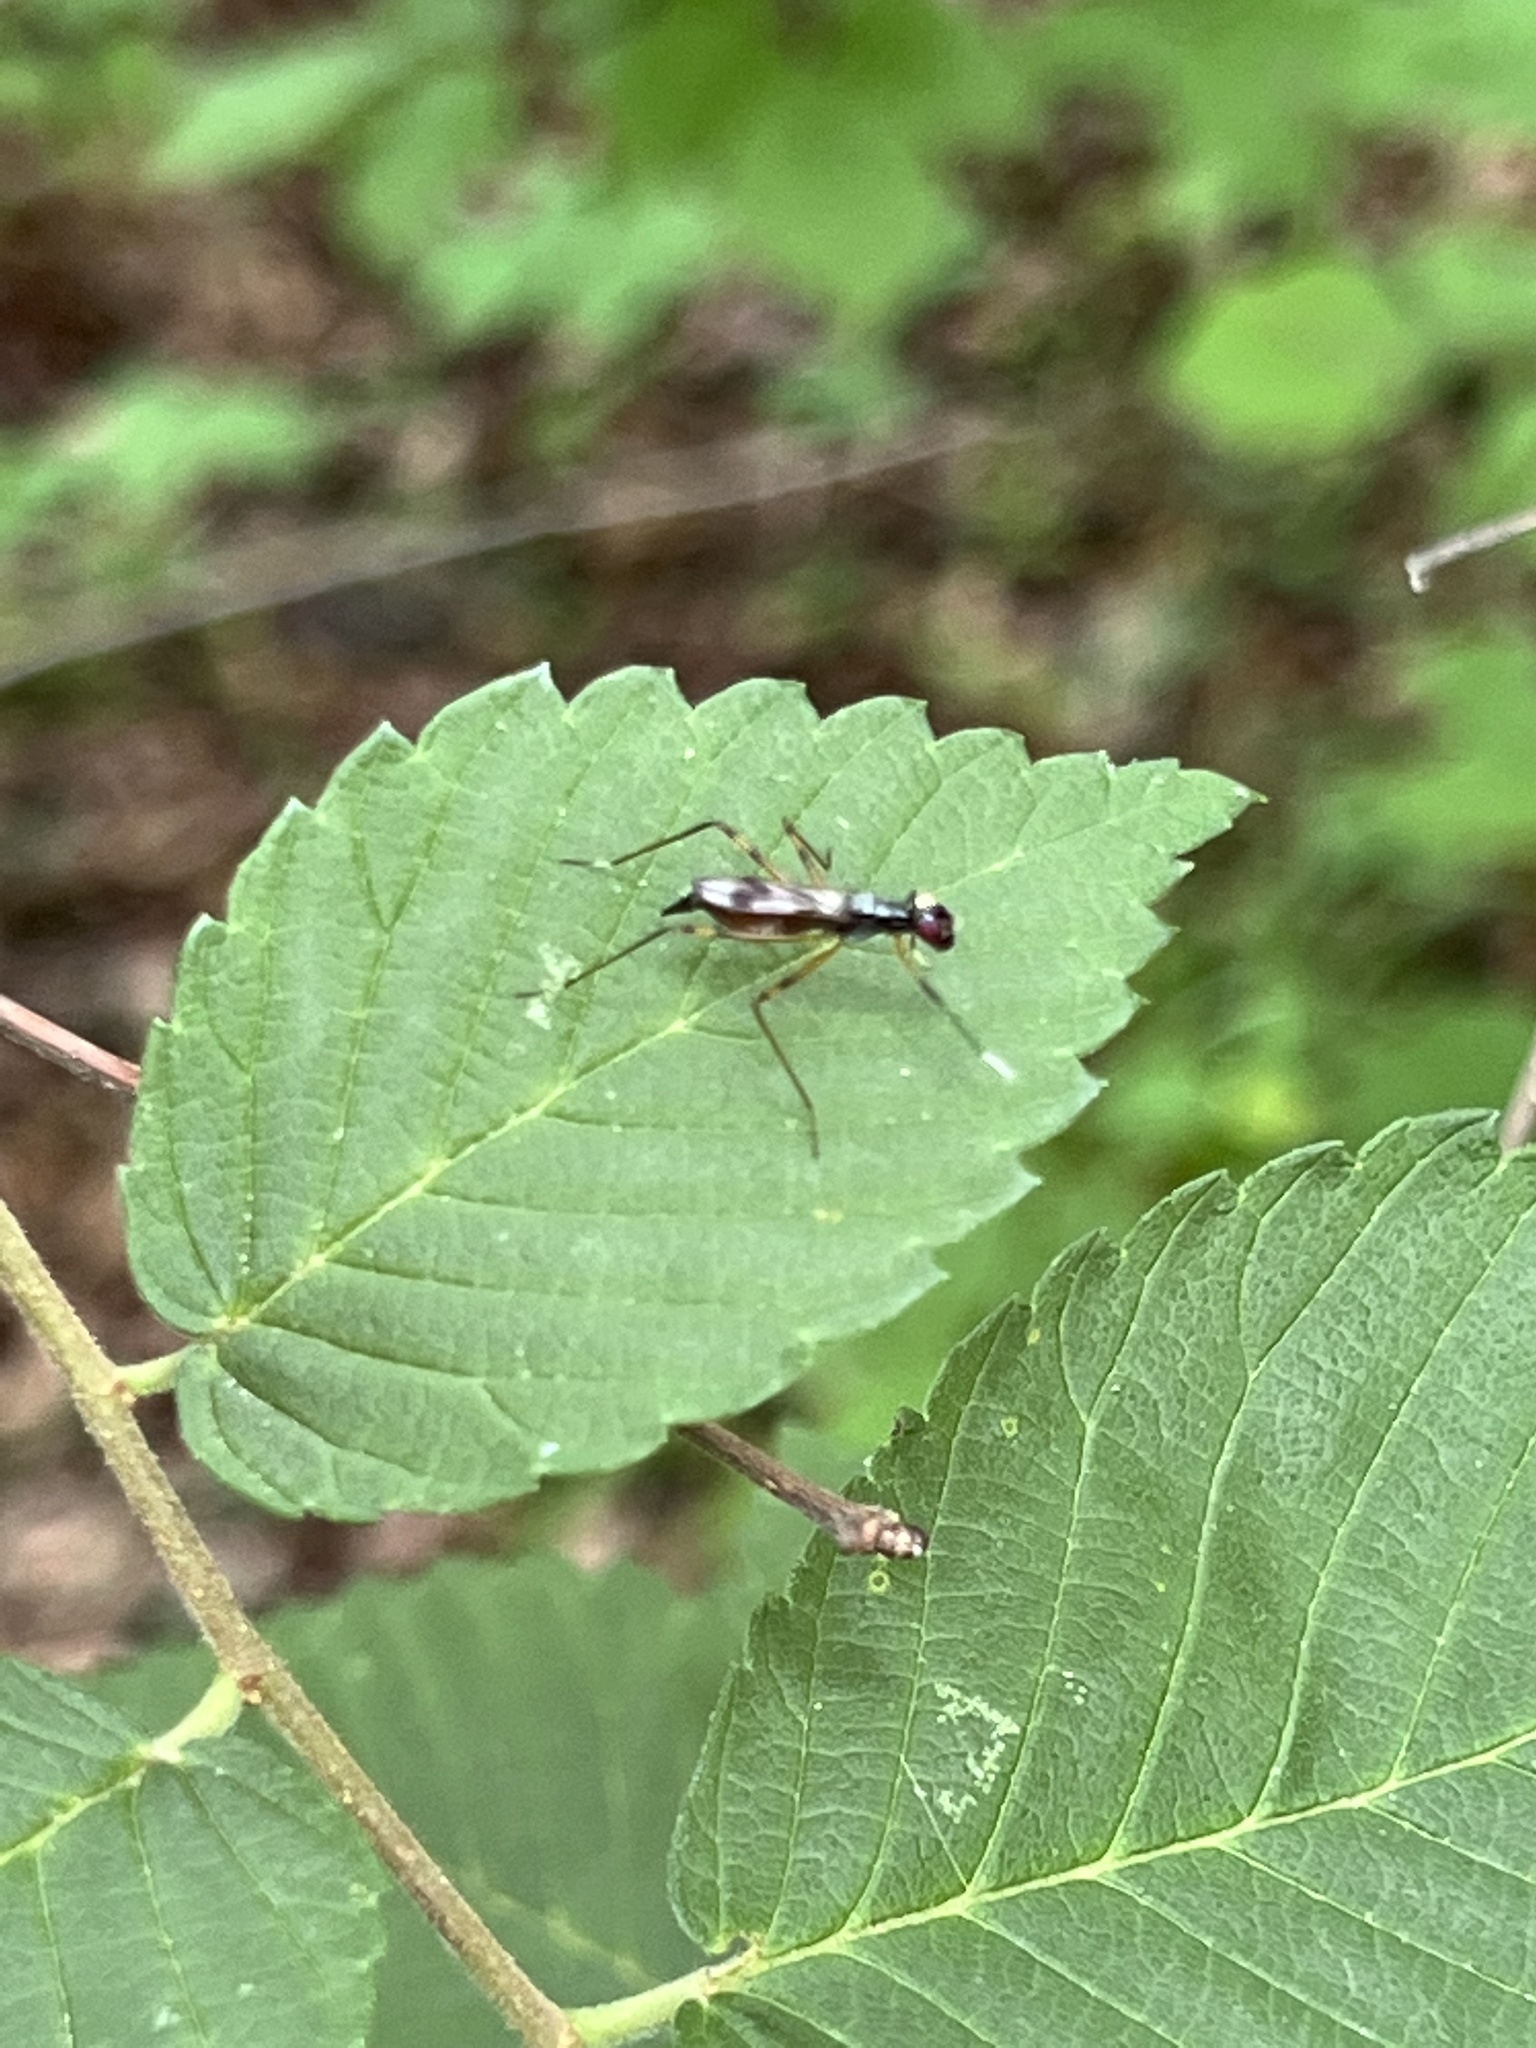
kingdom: Animalia
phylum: Arthropoda
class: Insecta
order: Diptera
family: Micropezidae
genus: Rainieria
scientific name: Rainieria antennaepes
